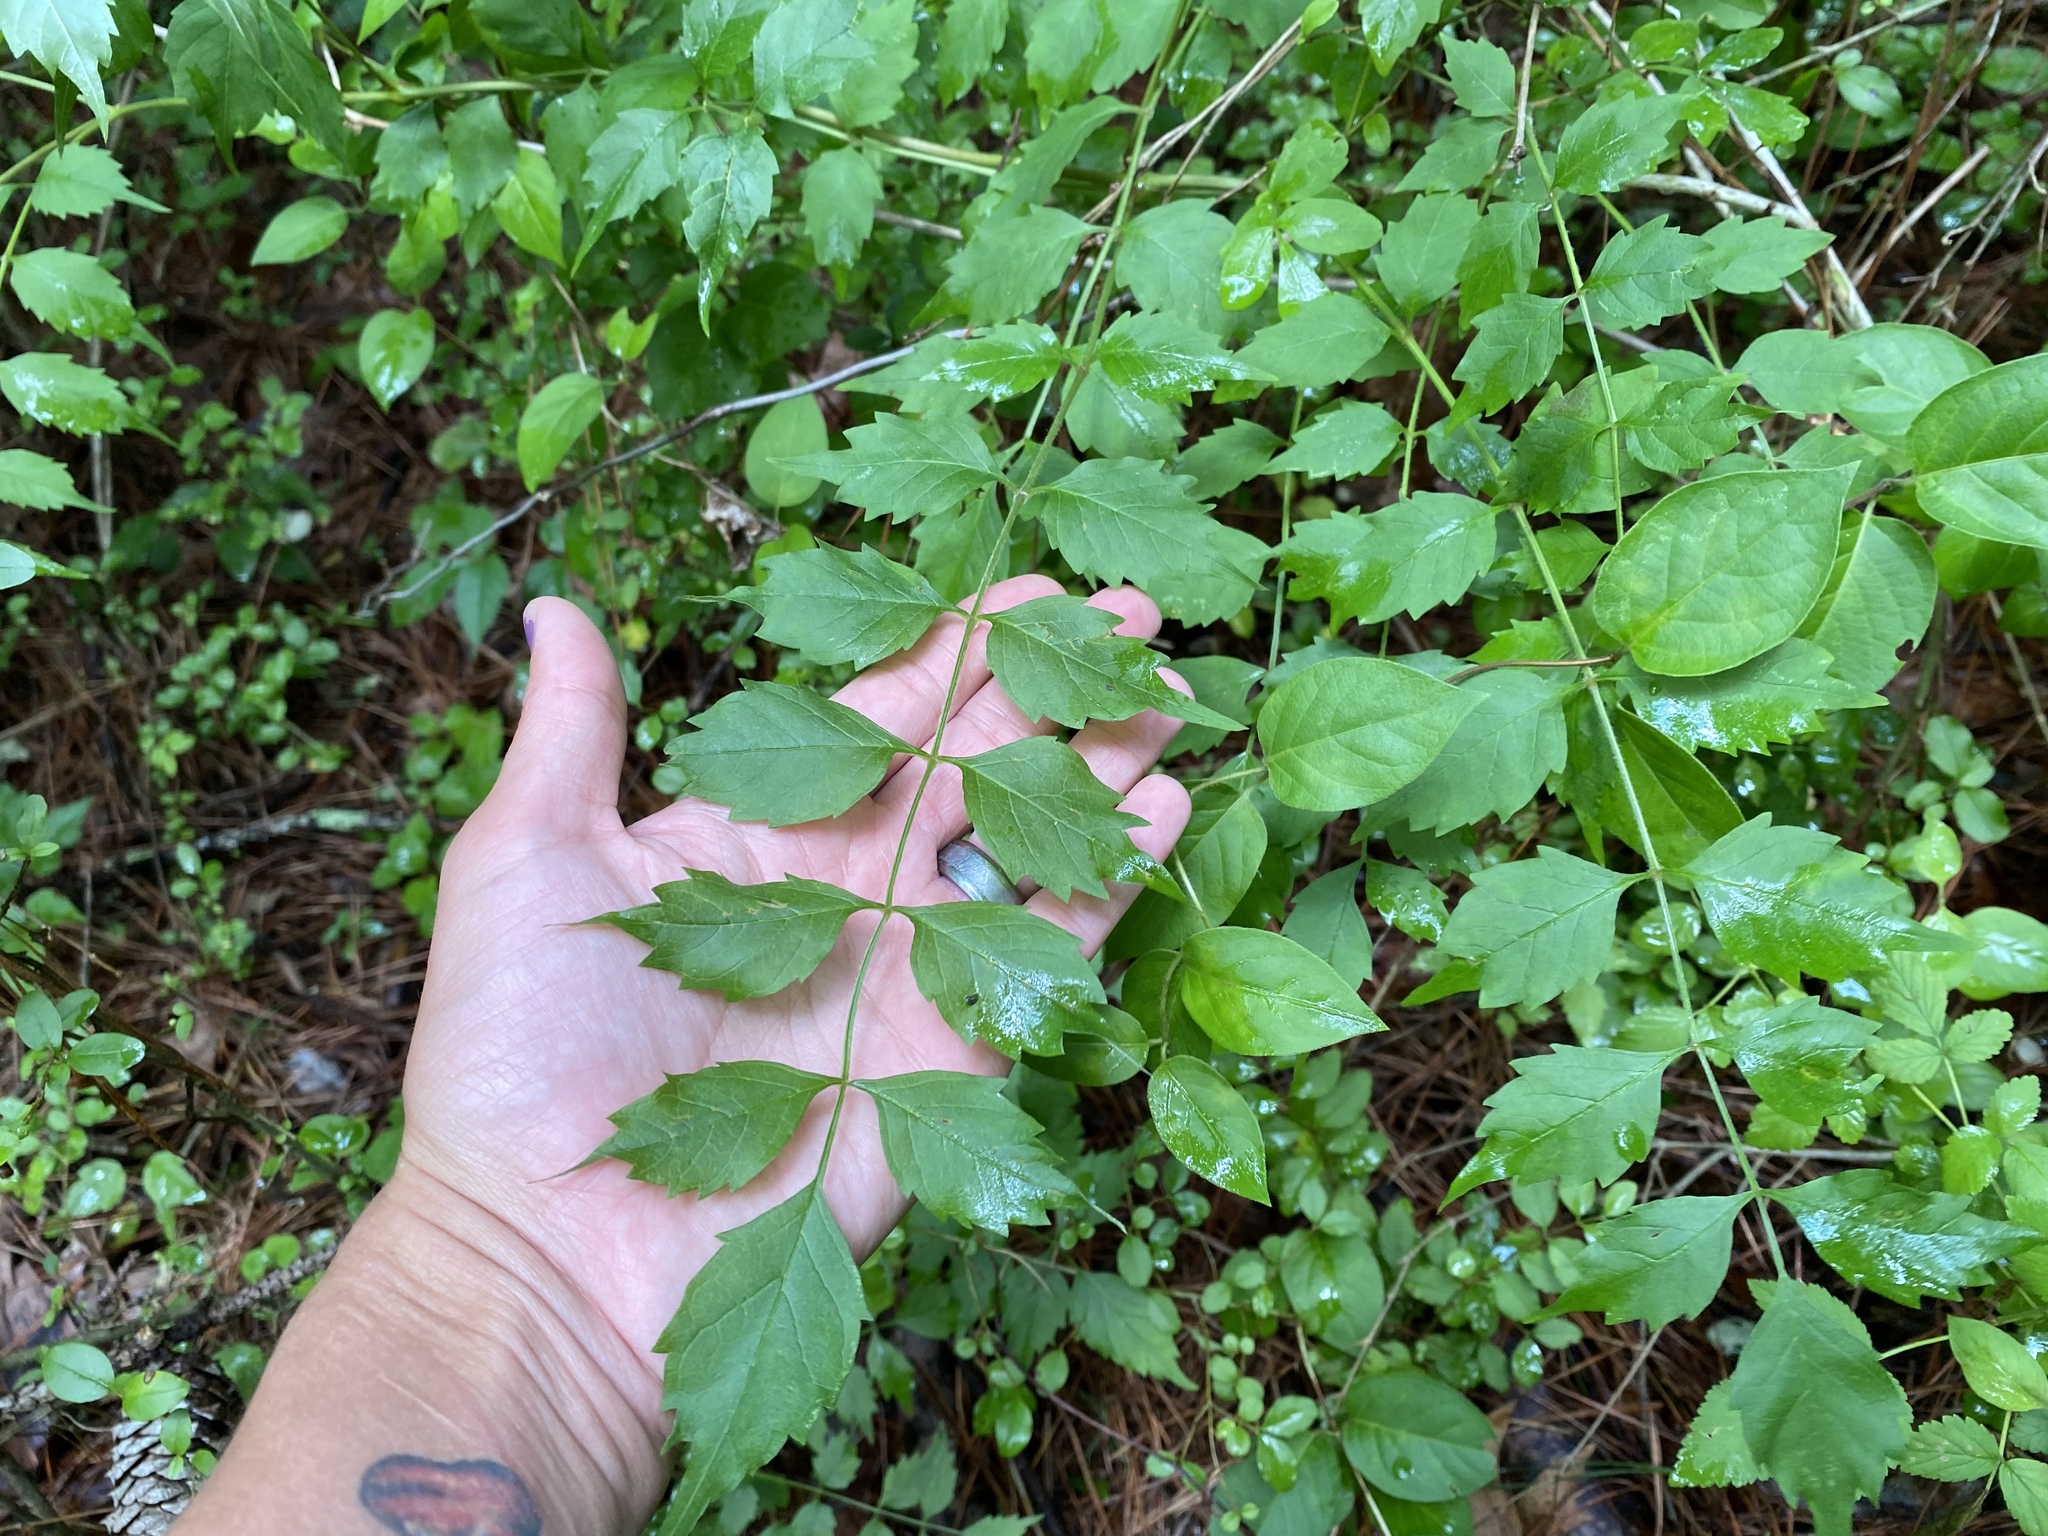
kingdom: Plantae
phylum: Tracheophyta
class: Magnoliopsida
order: Lamiales
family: Bignoniaceae
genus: Campsis
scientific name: Campsis radicans
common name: Trumpet-creeper
